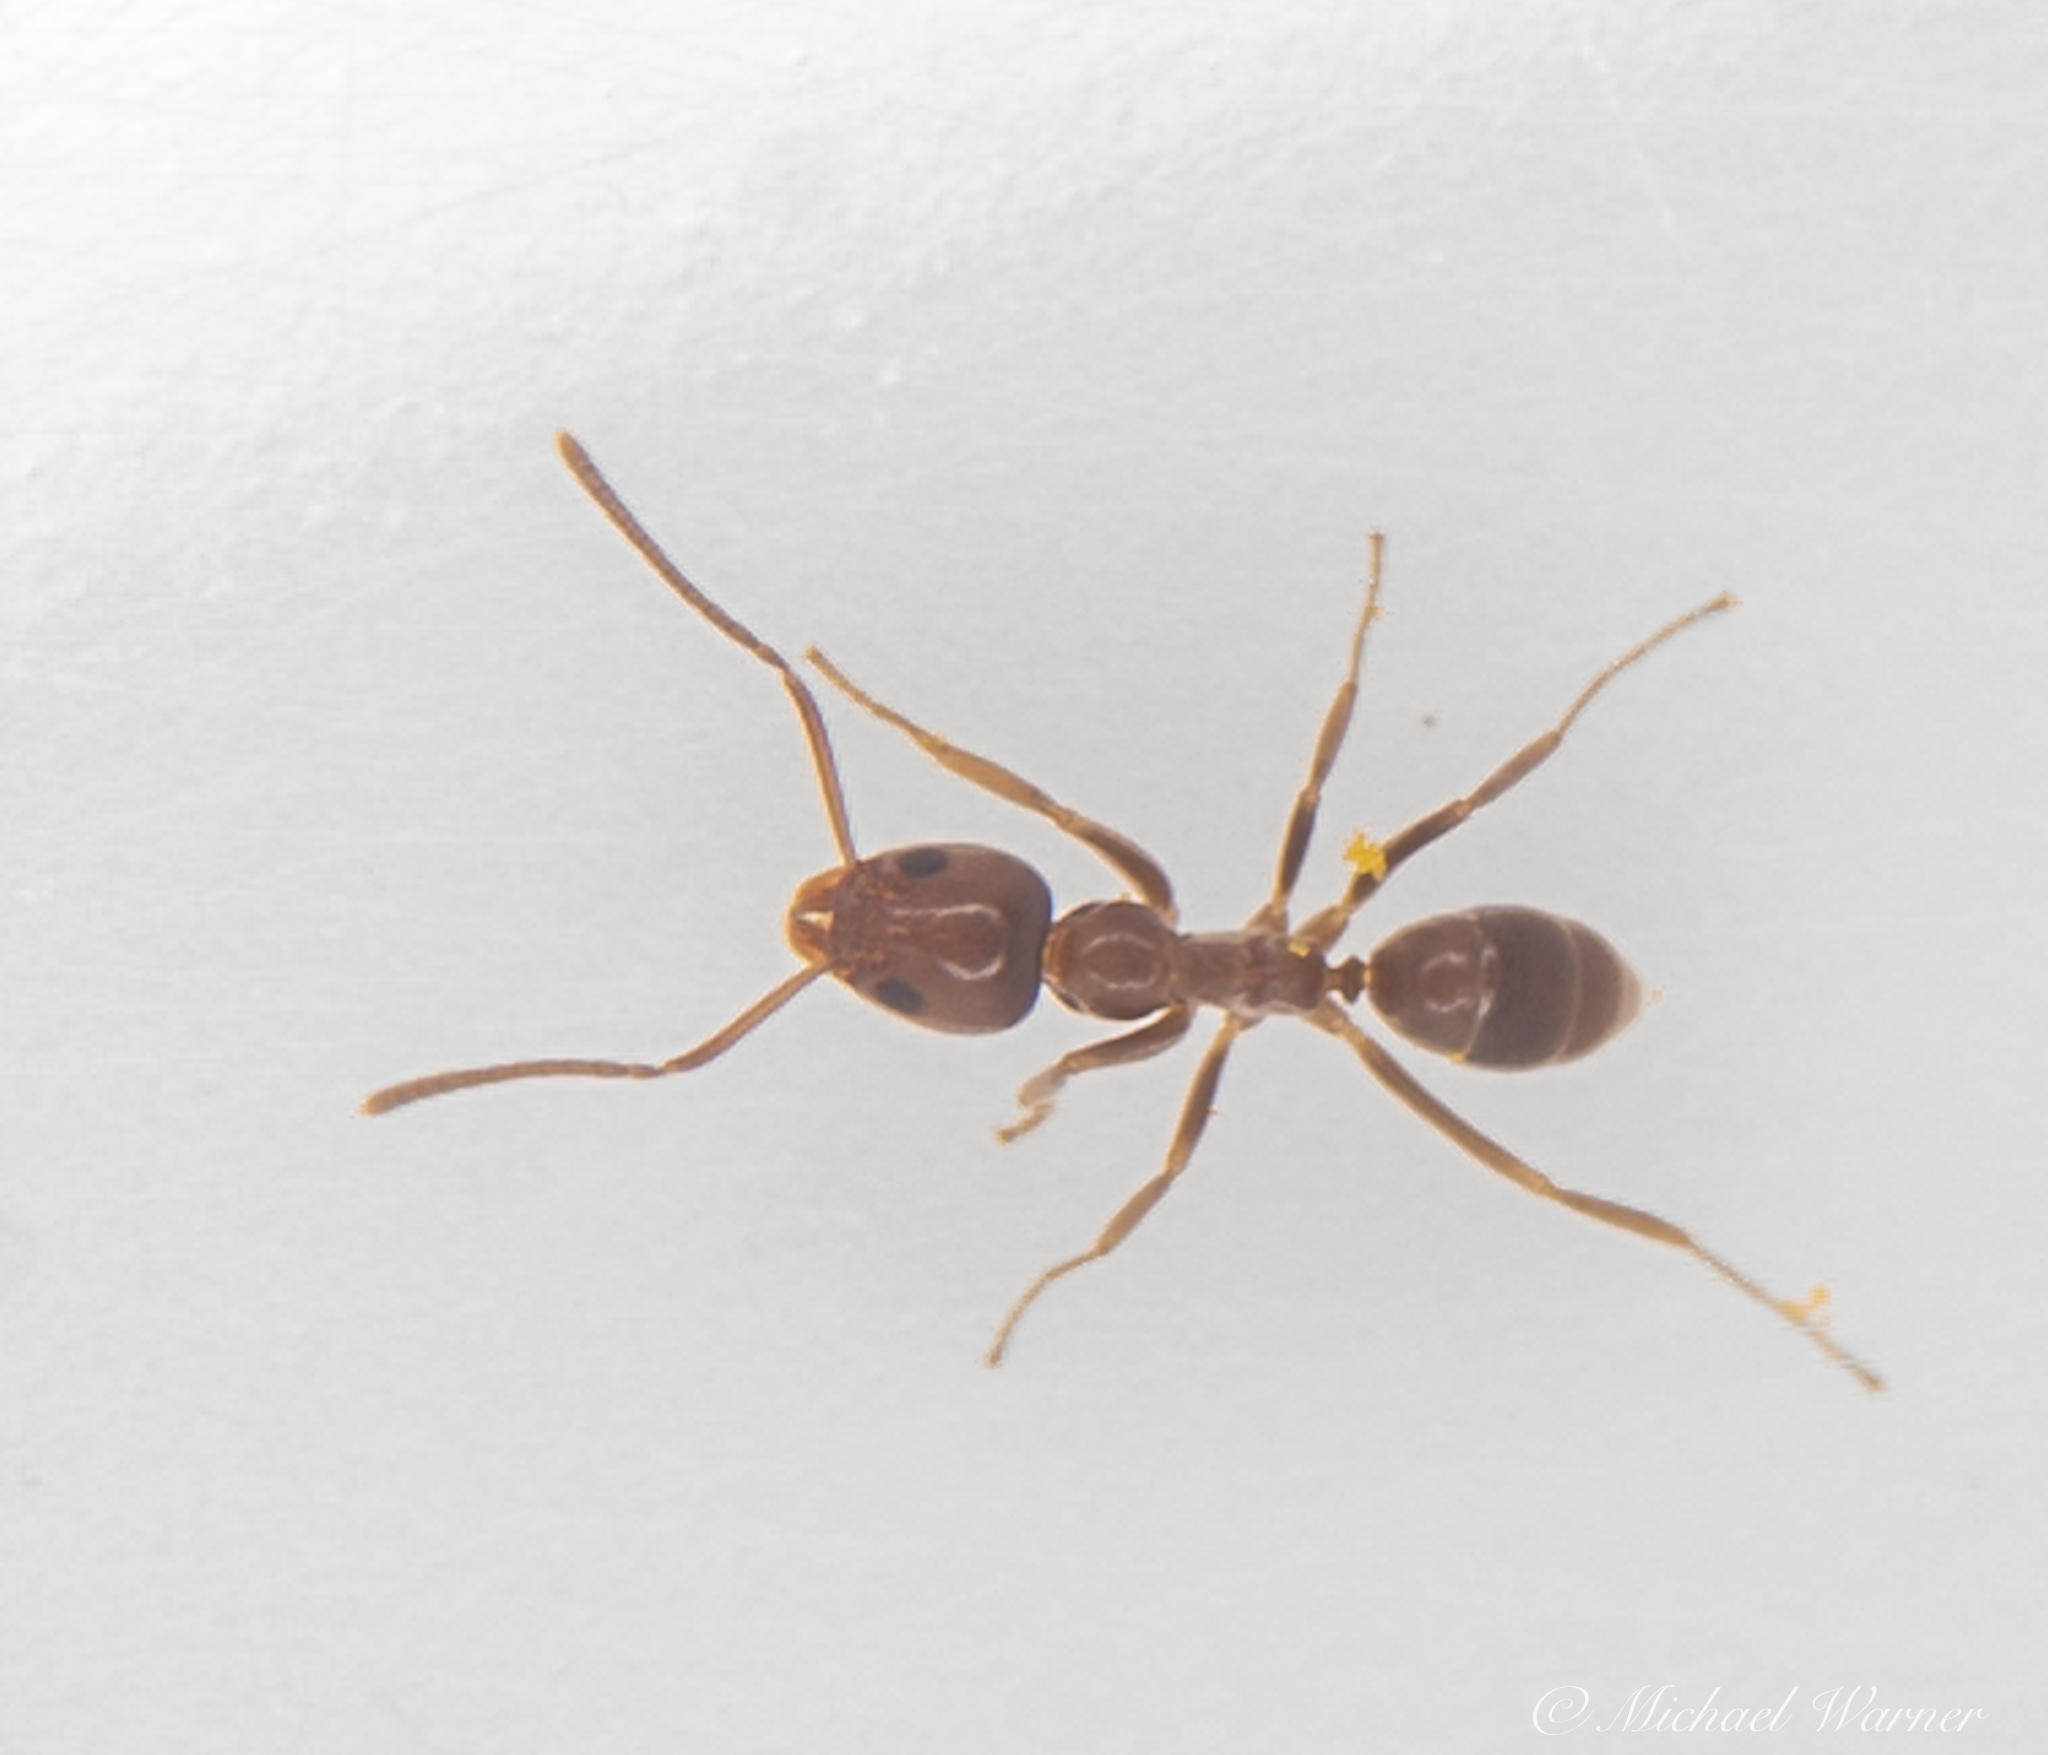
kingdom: Animalia
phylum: Arthropoda
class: Insecta
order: Hymenoptera
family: Formicidae
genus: Linepithema
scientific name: Linepithema humile
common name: Argentine ant
